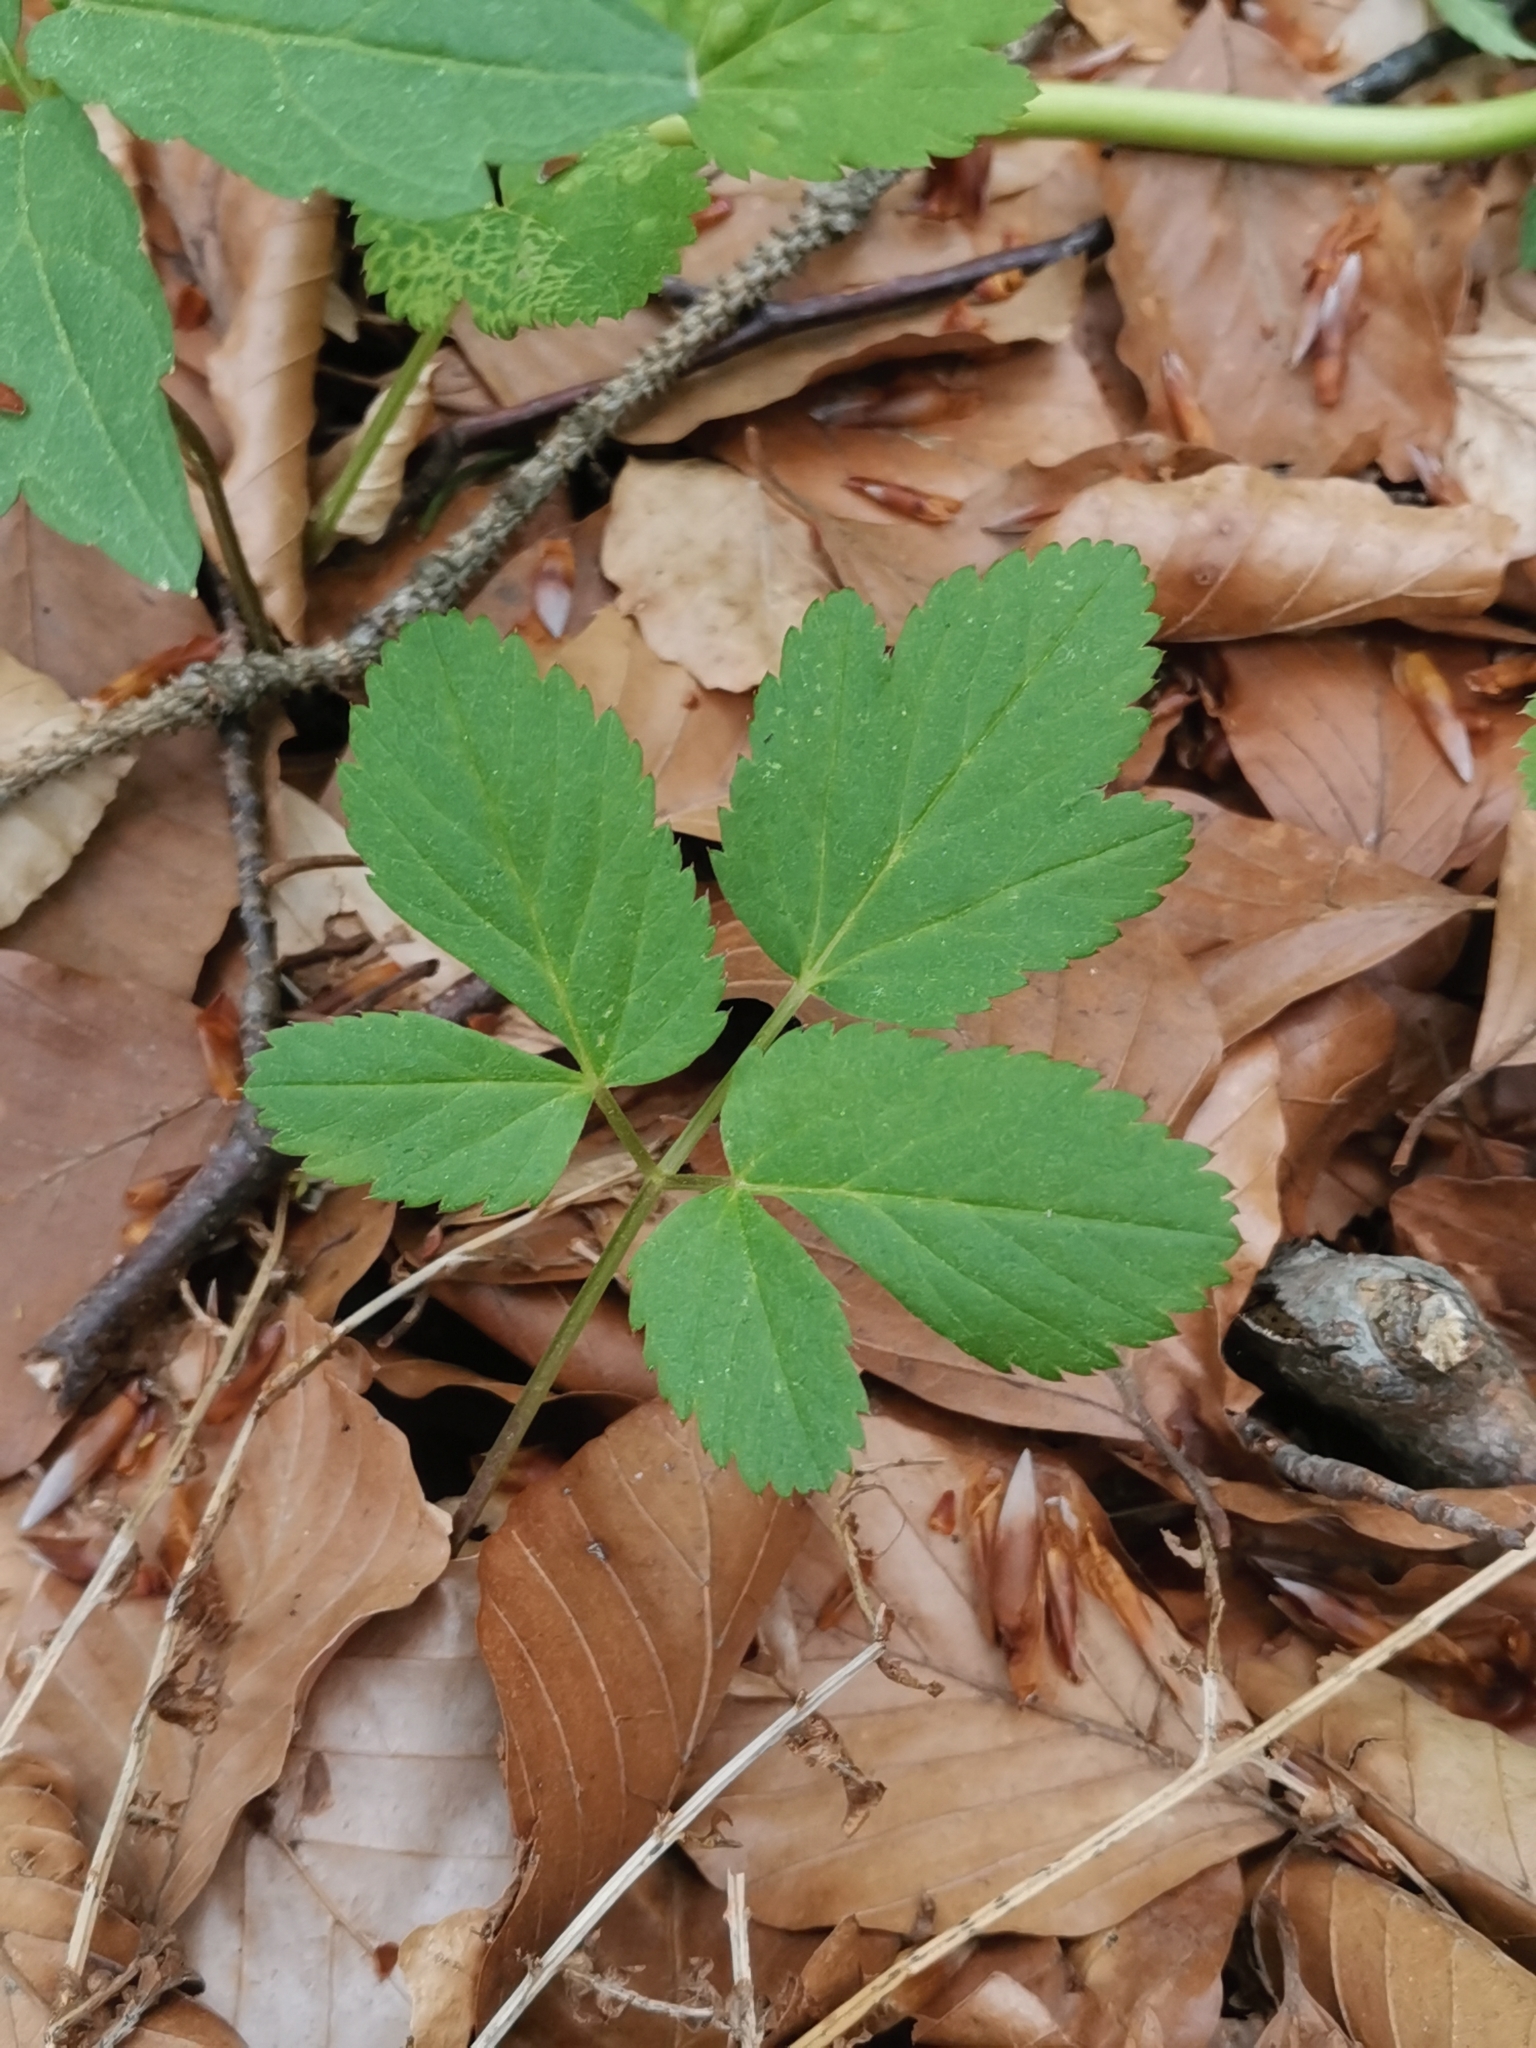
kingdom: Plantae
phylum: Tracheophyta
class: Magnoliopsida
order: Apiales
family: Apiaceae
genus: Aegopodium
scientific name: Aegopodium podagraria
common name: Ground-elder
